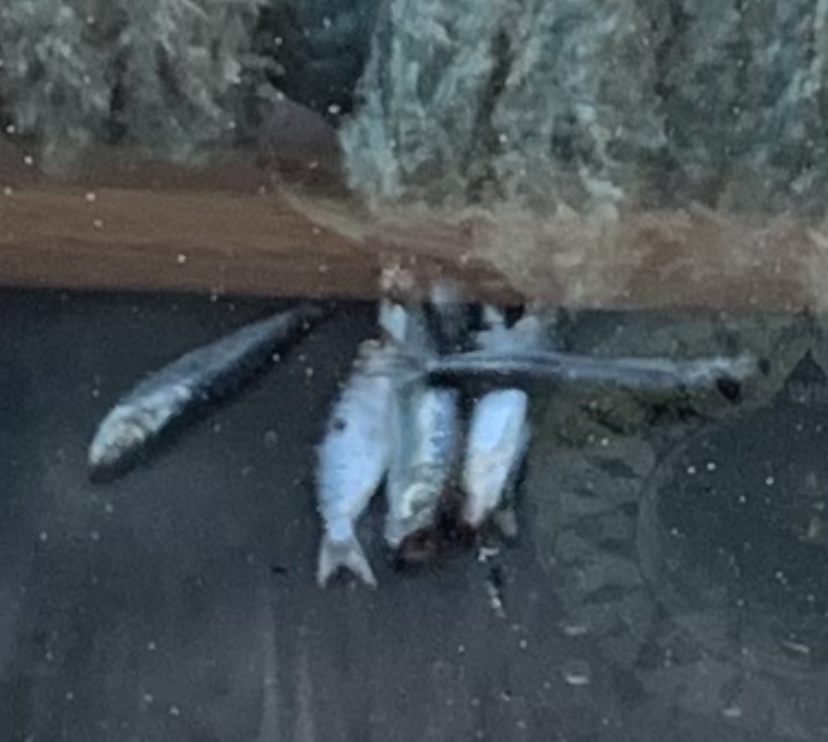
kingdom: Animalia
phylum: Chordata
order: Clupeiformes
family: Clupeidae
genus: Clupea
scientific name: Clupea pallasii
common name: Pacific herring
